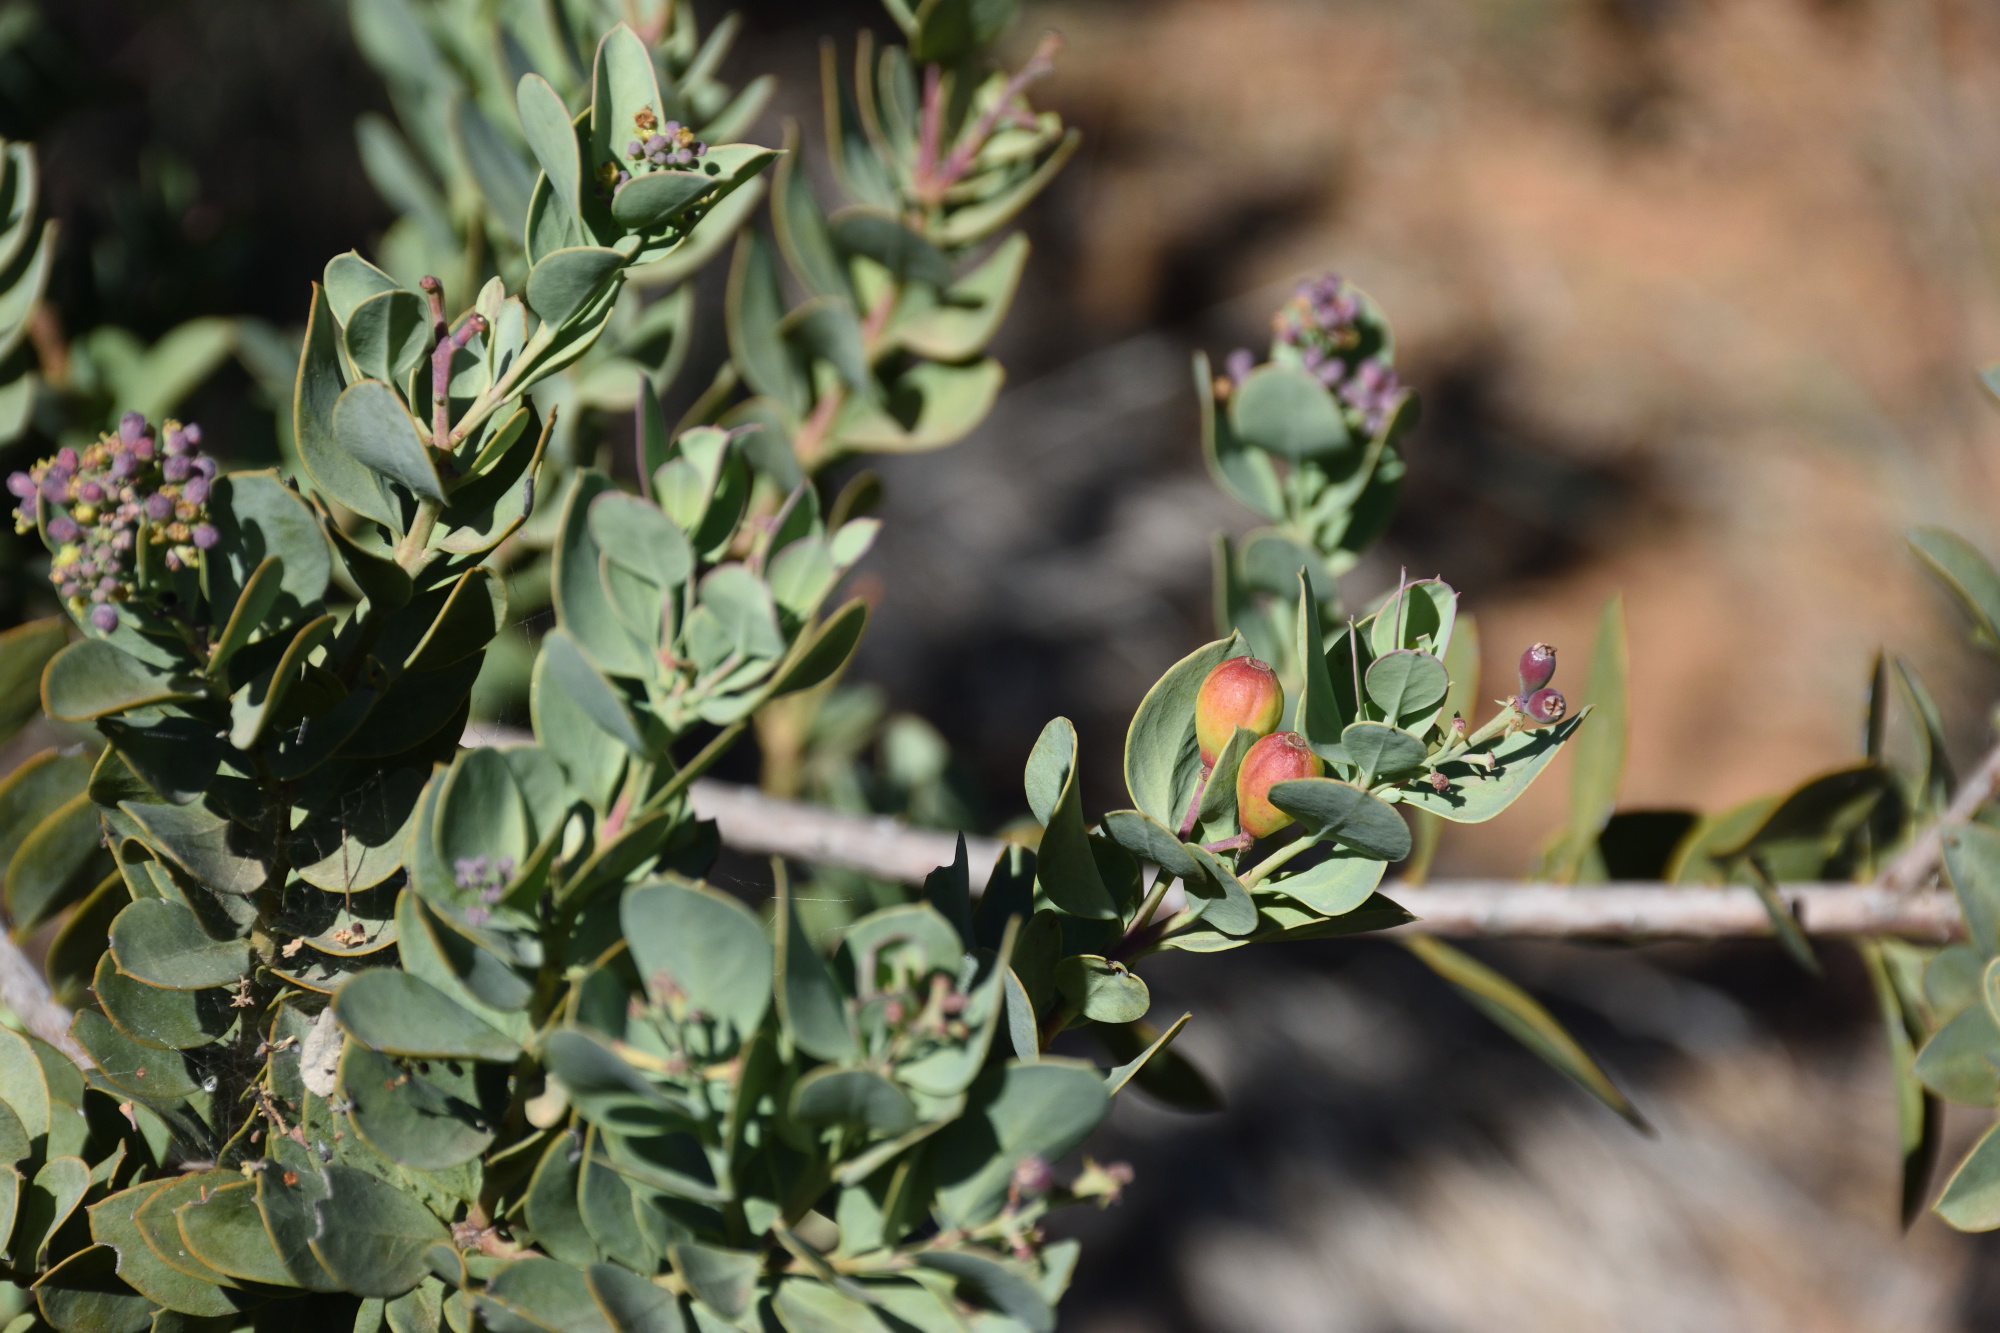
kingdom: Plantae
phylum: Tracheophyta
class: Magnoliopsida
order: Santalales
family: Santalaceae
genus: Osyris
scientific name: Osyris compressa
